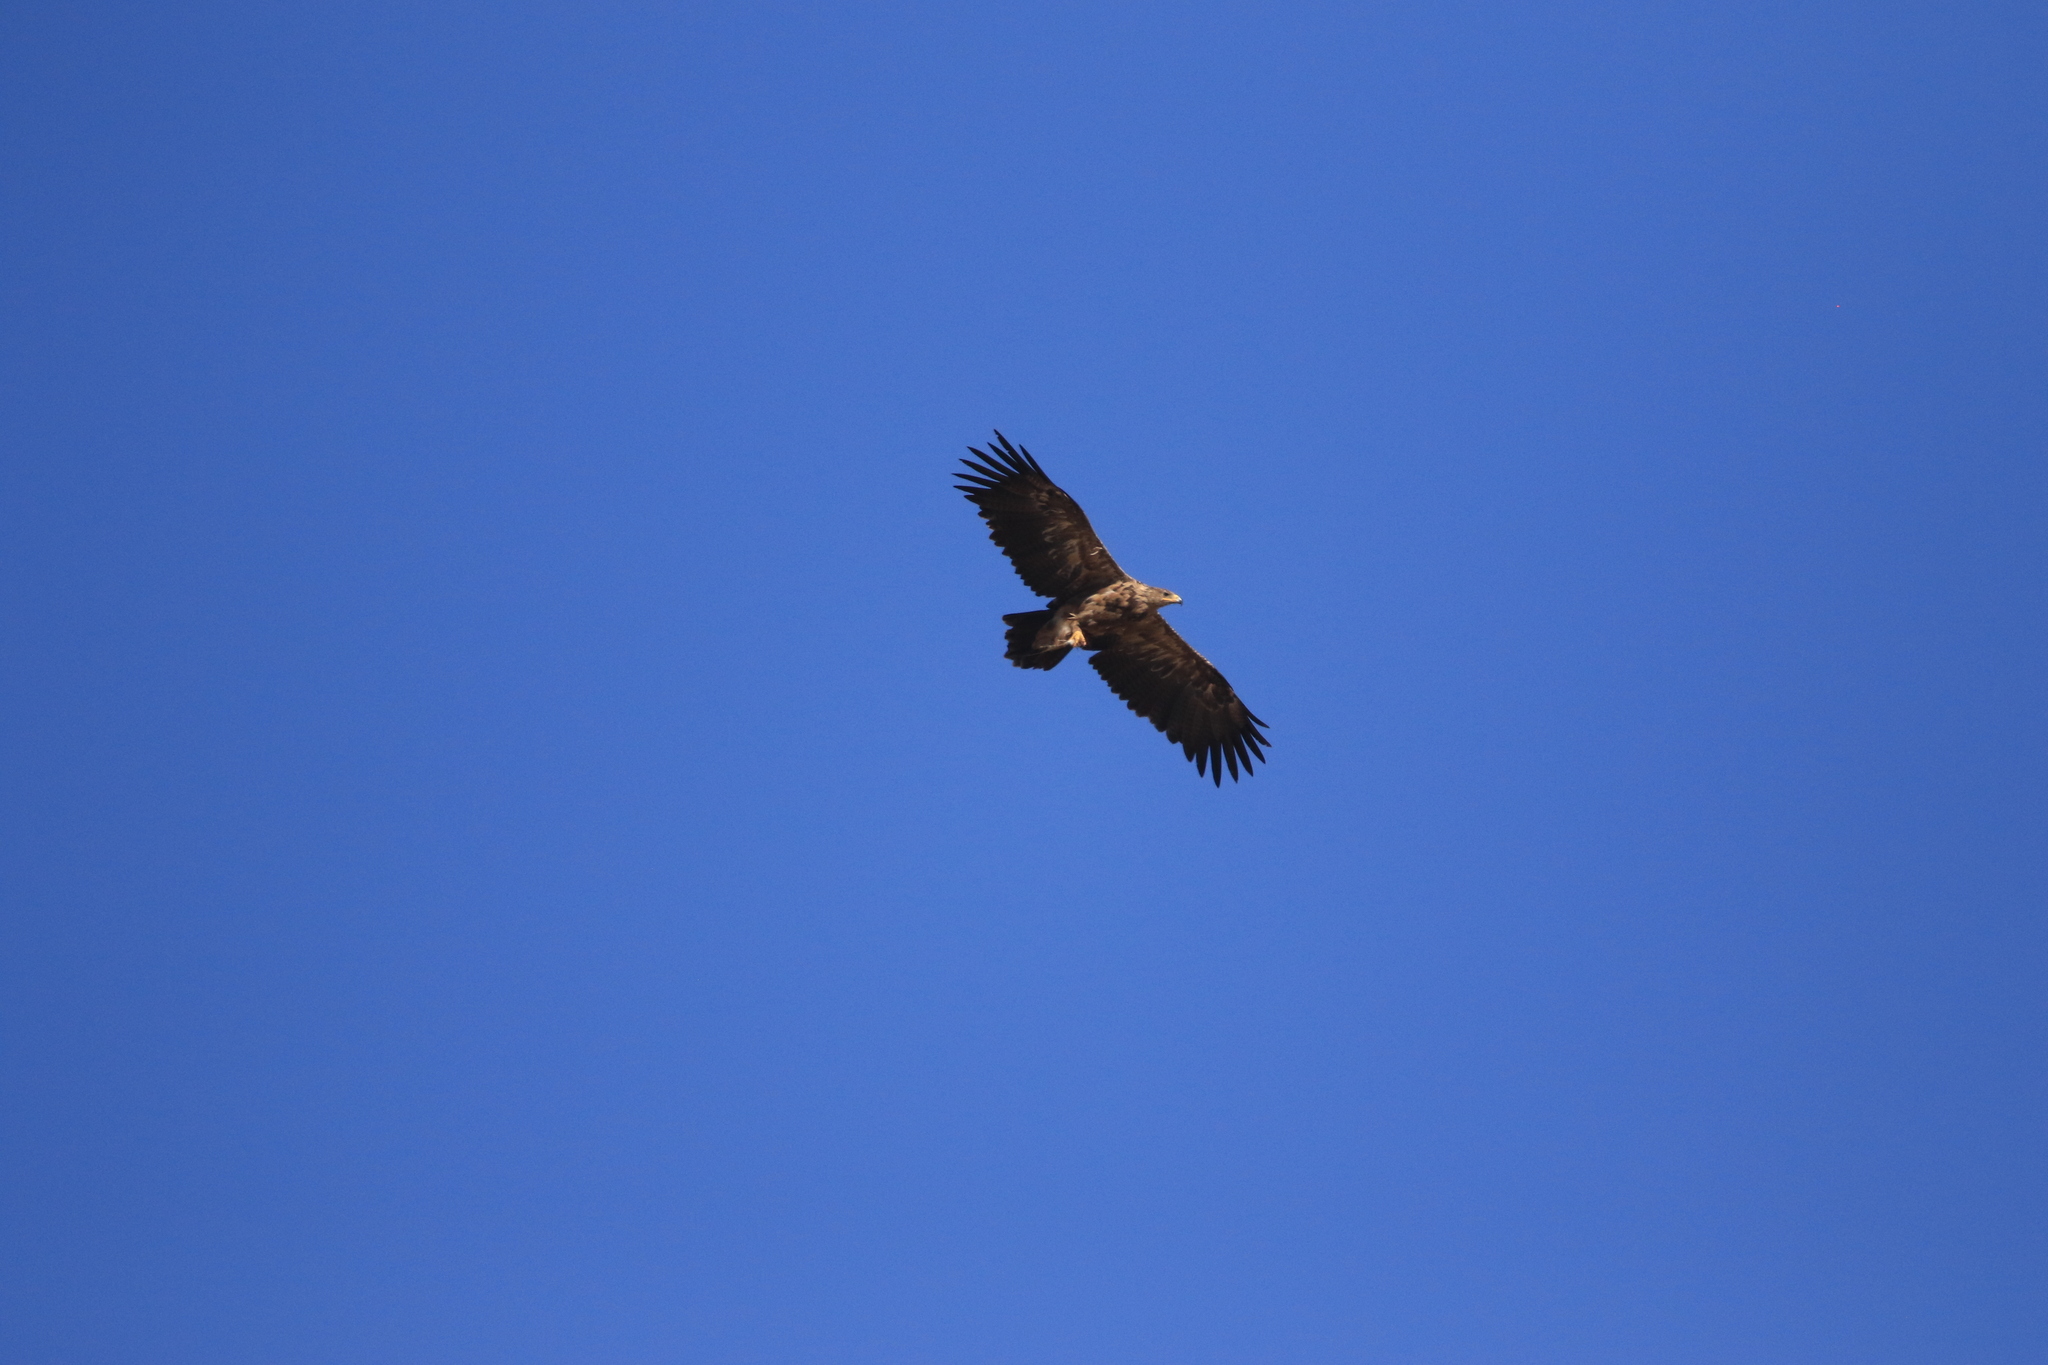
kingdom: Animalia
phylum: Chordata
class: Aves
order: Accipitriformes
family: Accipitridae
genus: Aquila
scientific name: Aquila nipalensis
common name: Steppe eagle
